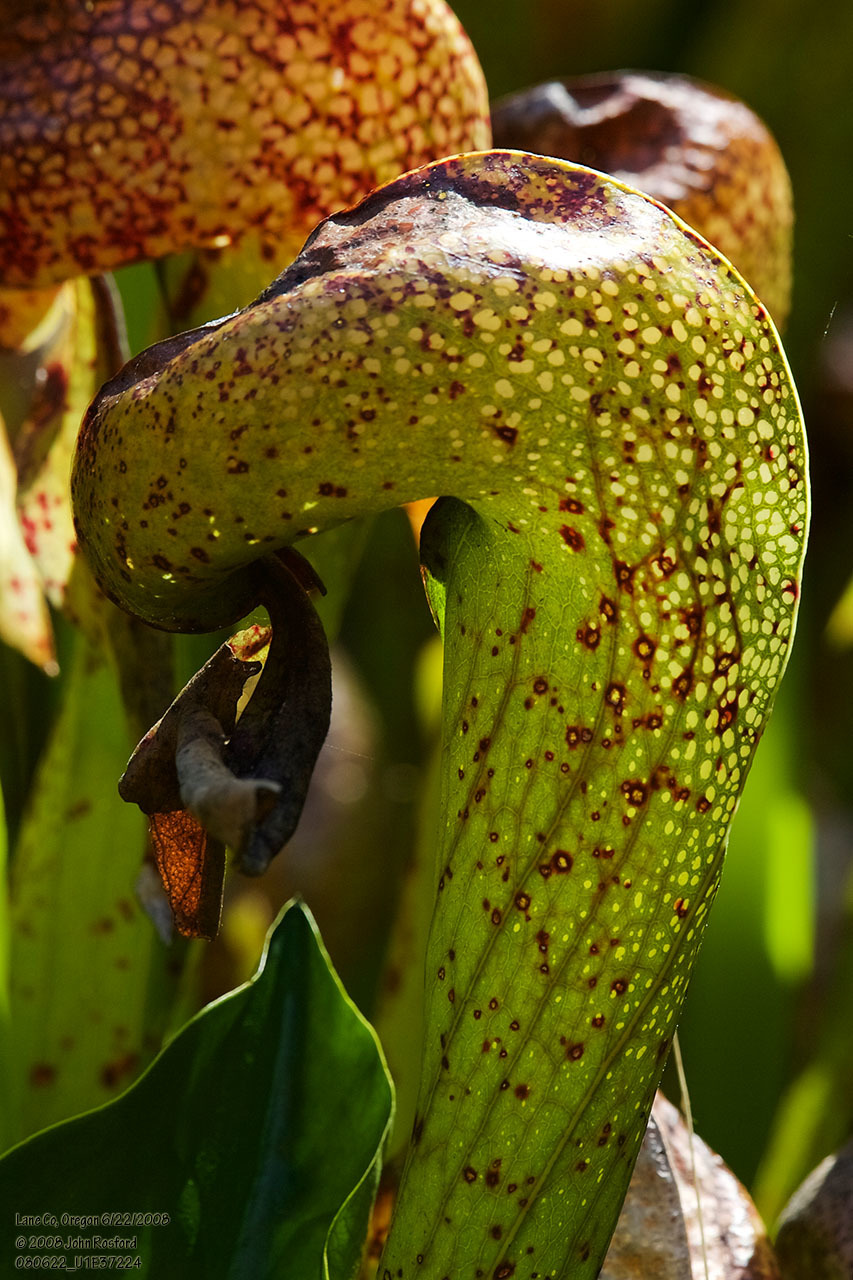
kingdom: Plantae
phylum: Tracheophyta
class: Magnoliopsida
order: Ericales
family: Sarraceniaceae
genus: Darlingtonia
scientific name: Darlingtonia californica
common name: California pitcher plant
